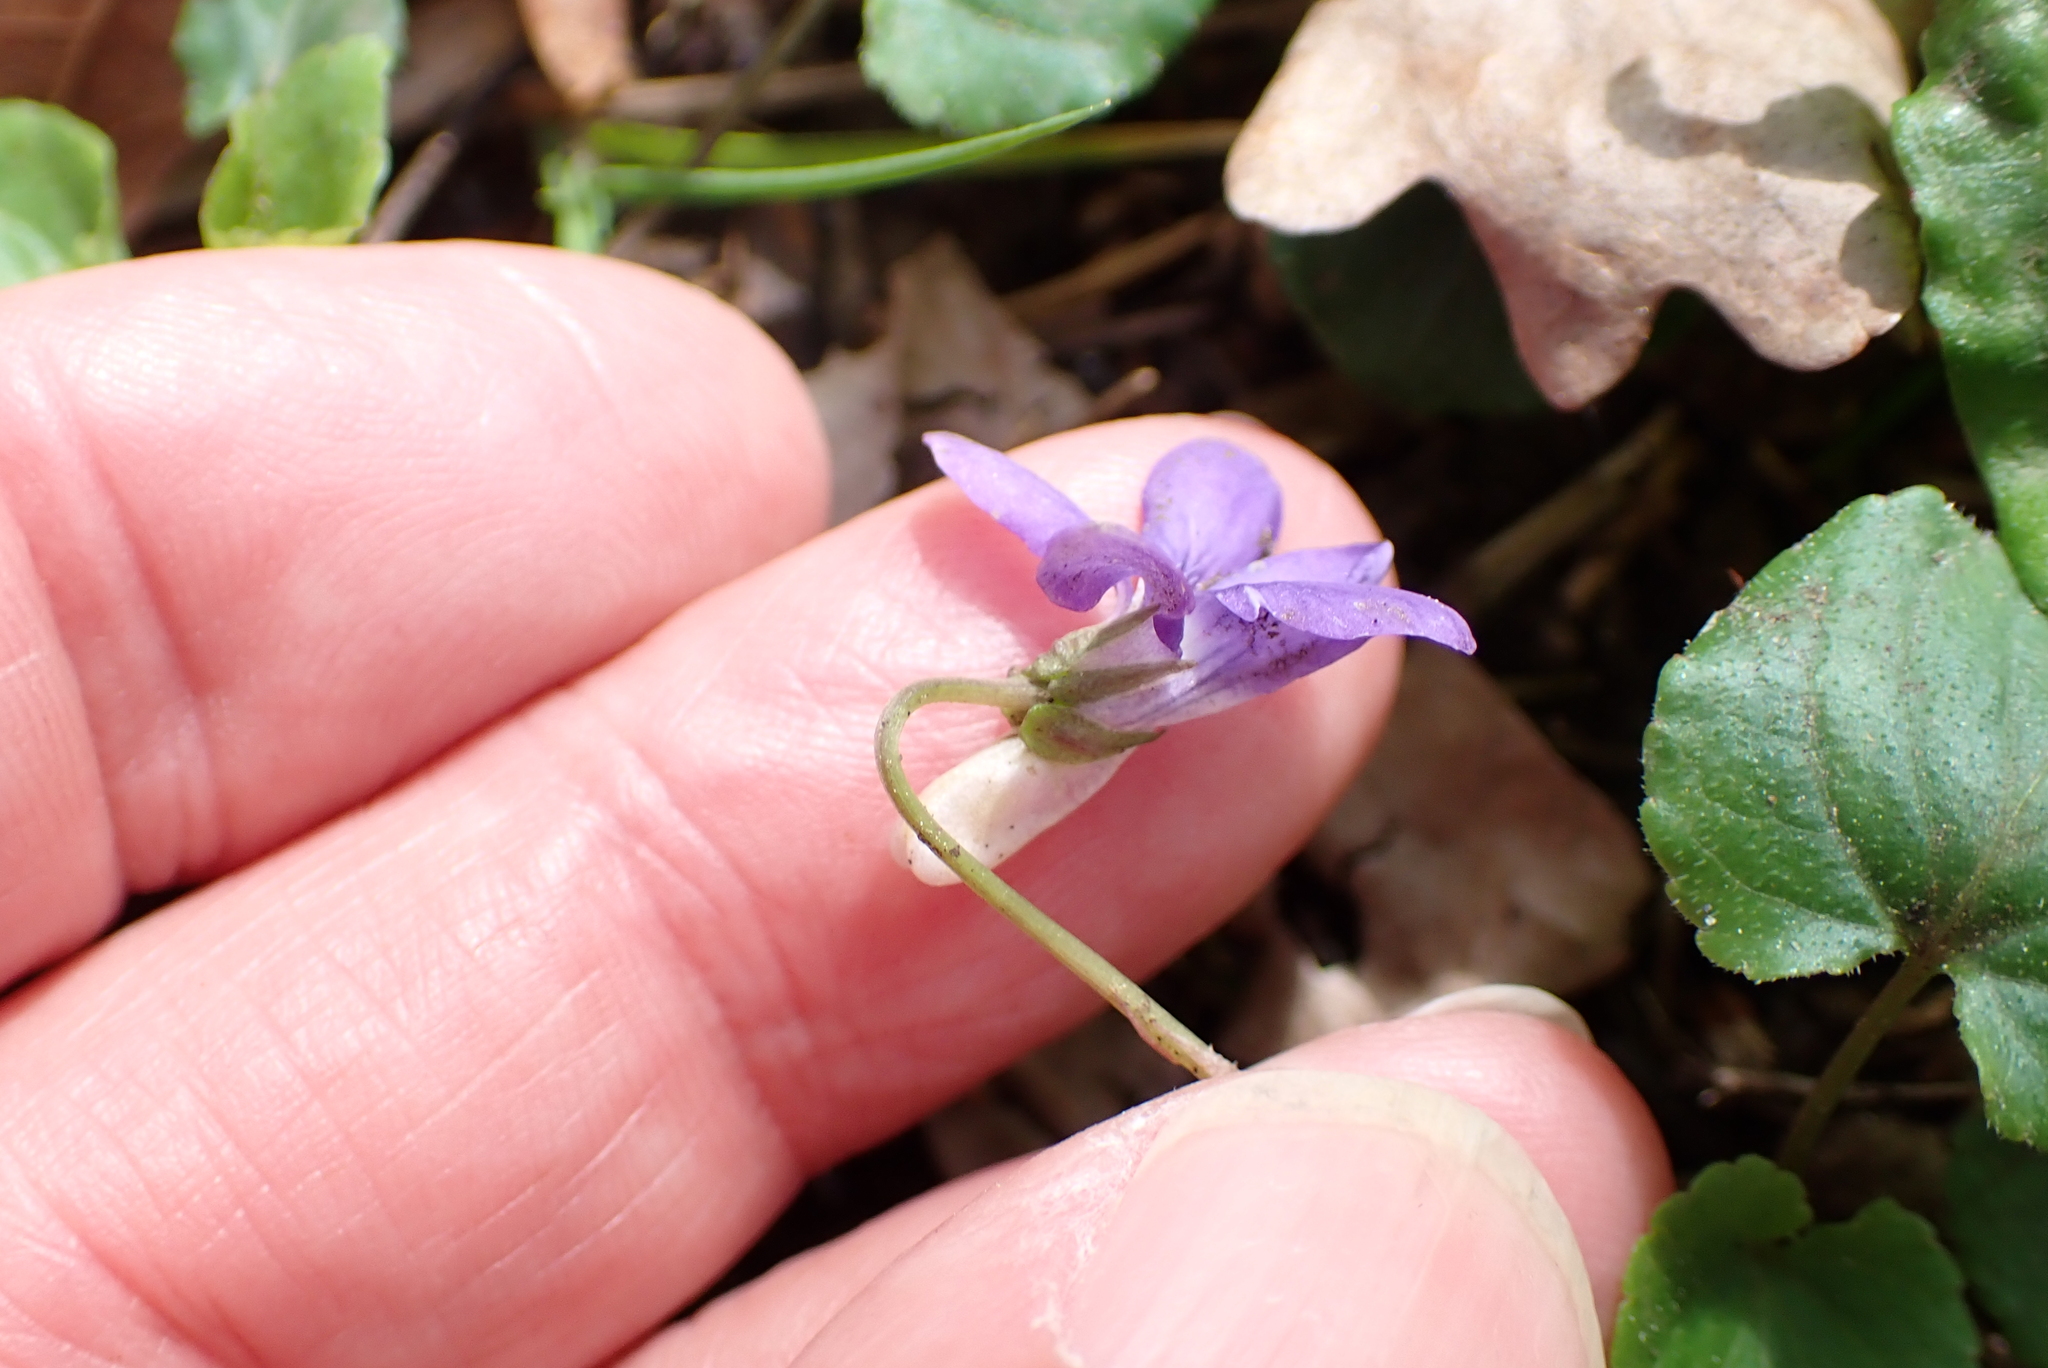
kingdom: Plantae
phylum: Tracheophyta
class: Magnoliopsida
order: Malpighiales
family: Violaceae
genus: Viola
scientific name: Viola riviniana
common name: Common dog-violet
